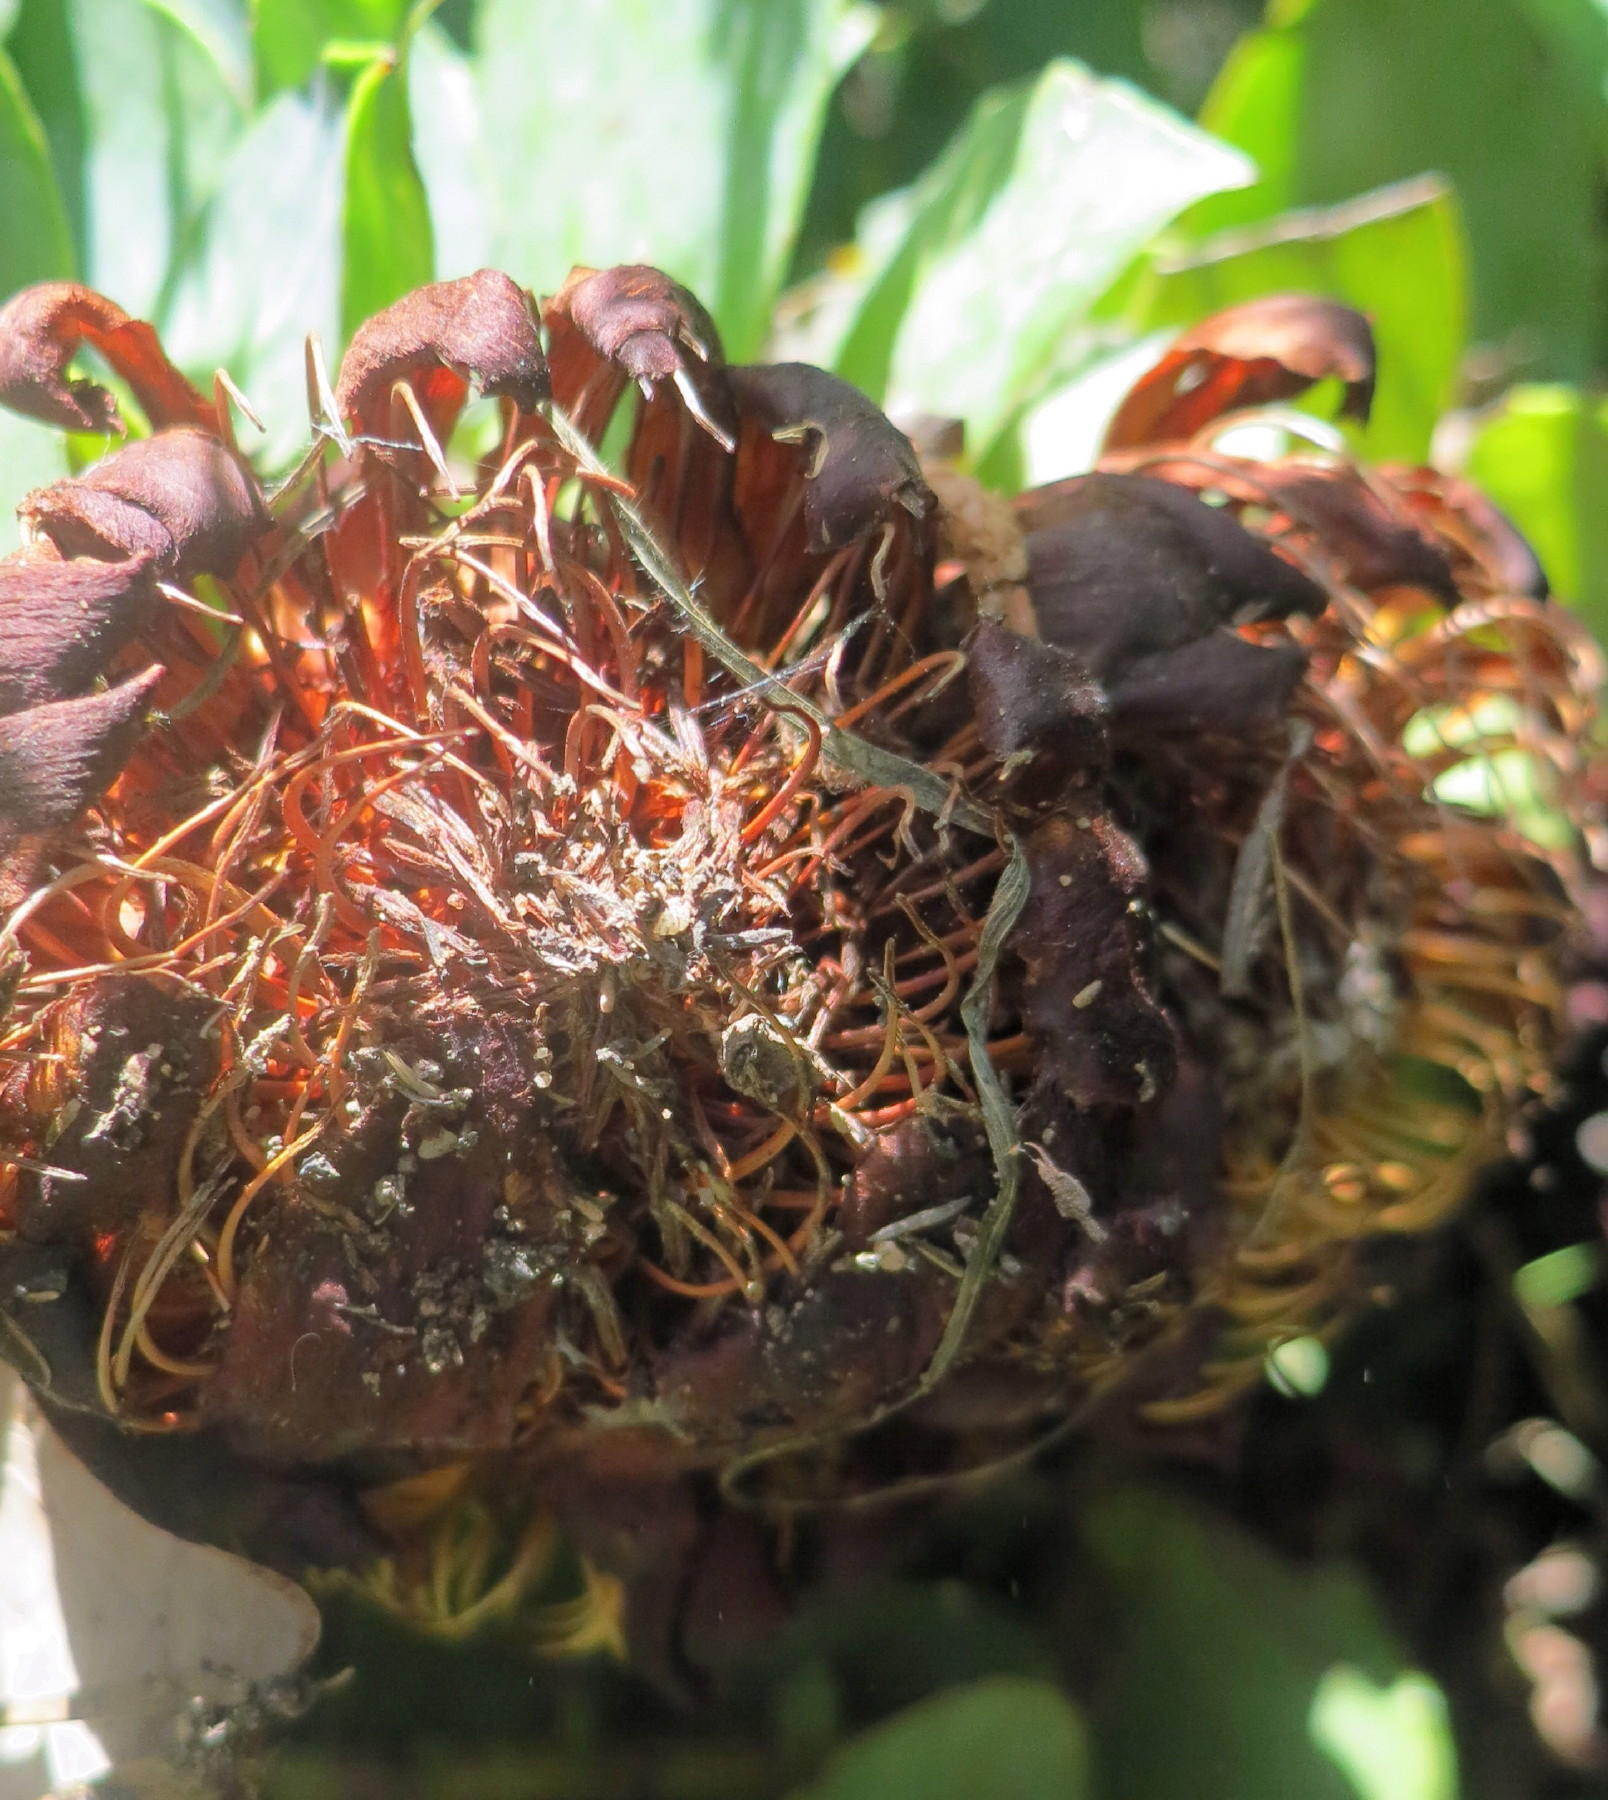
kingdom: Plantae
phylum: Tracheophyta
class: Magnoliopsida
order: Proteales
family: Proteaceae
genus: Protea
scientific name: Protea amplexicaulis
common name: Clasping-leaf sugarbush
